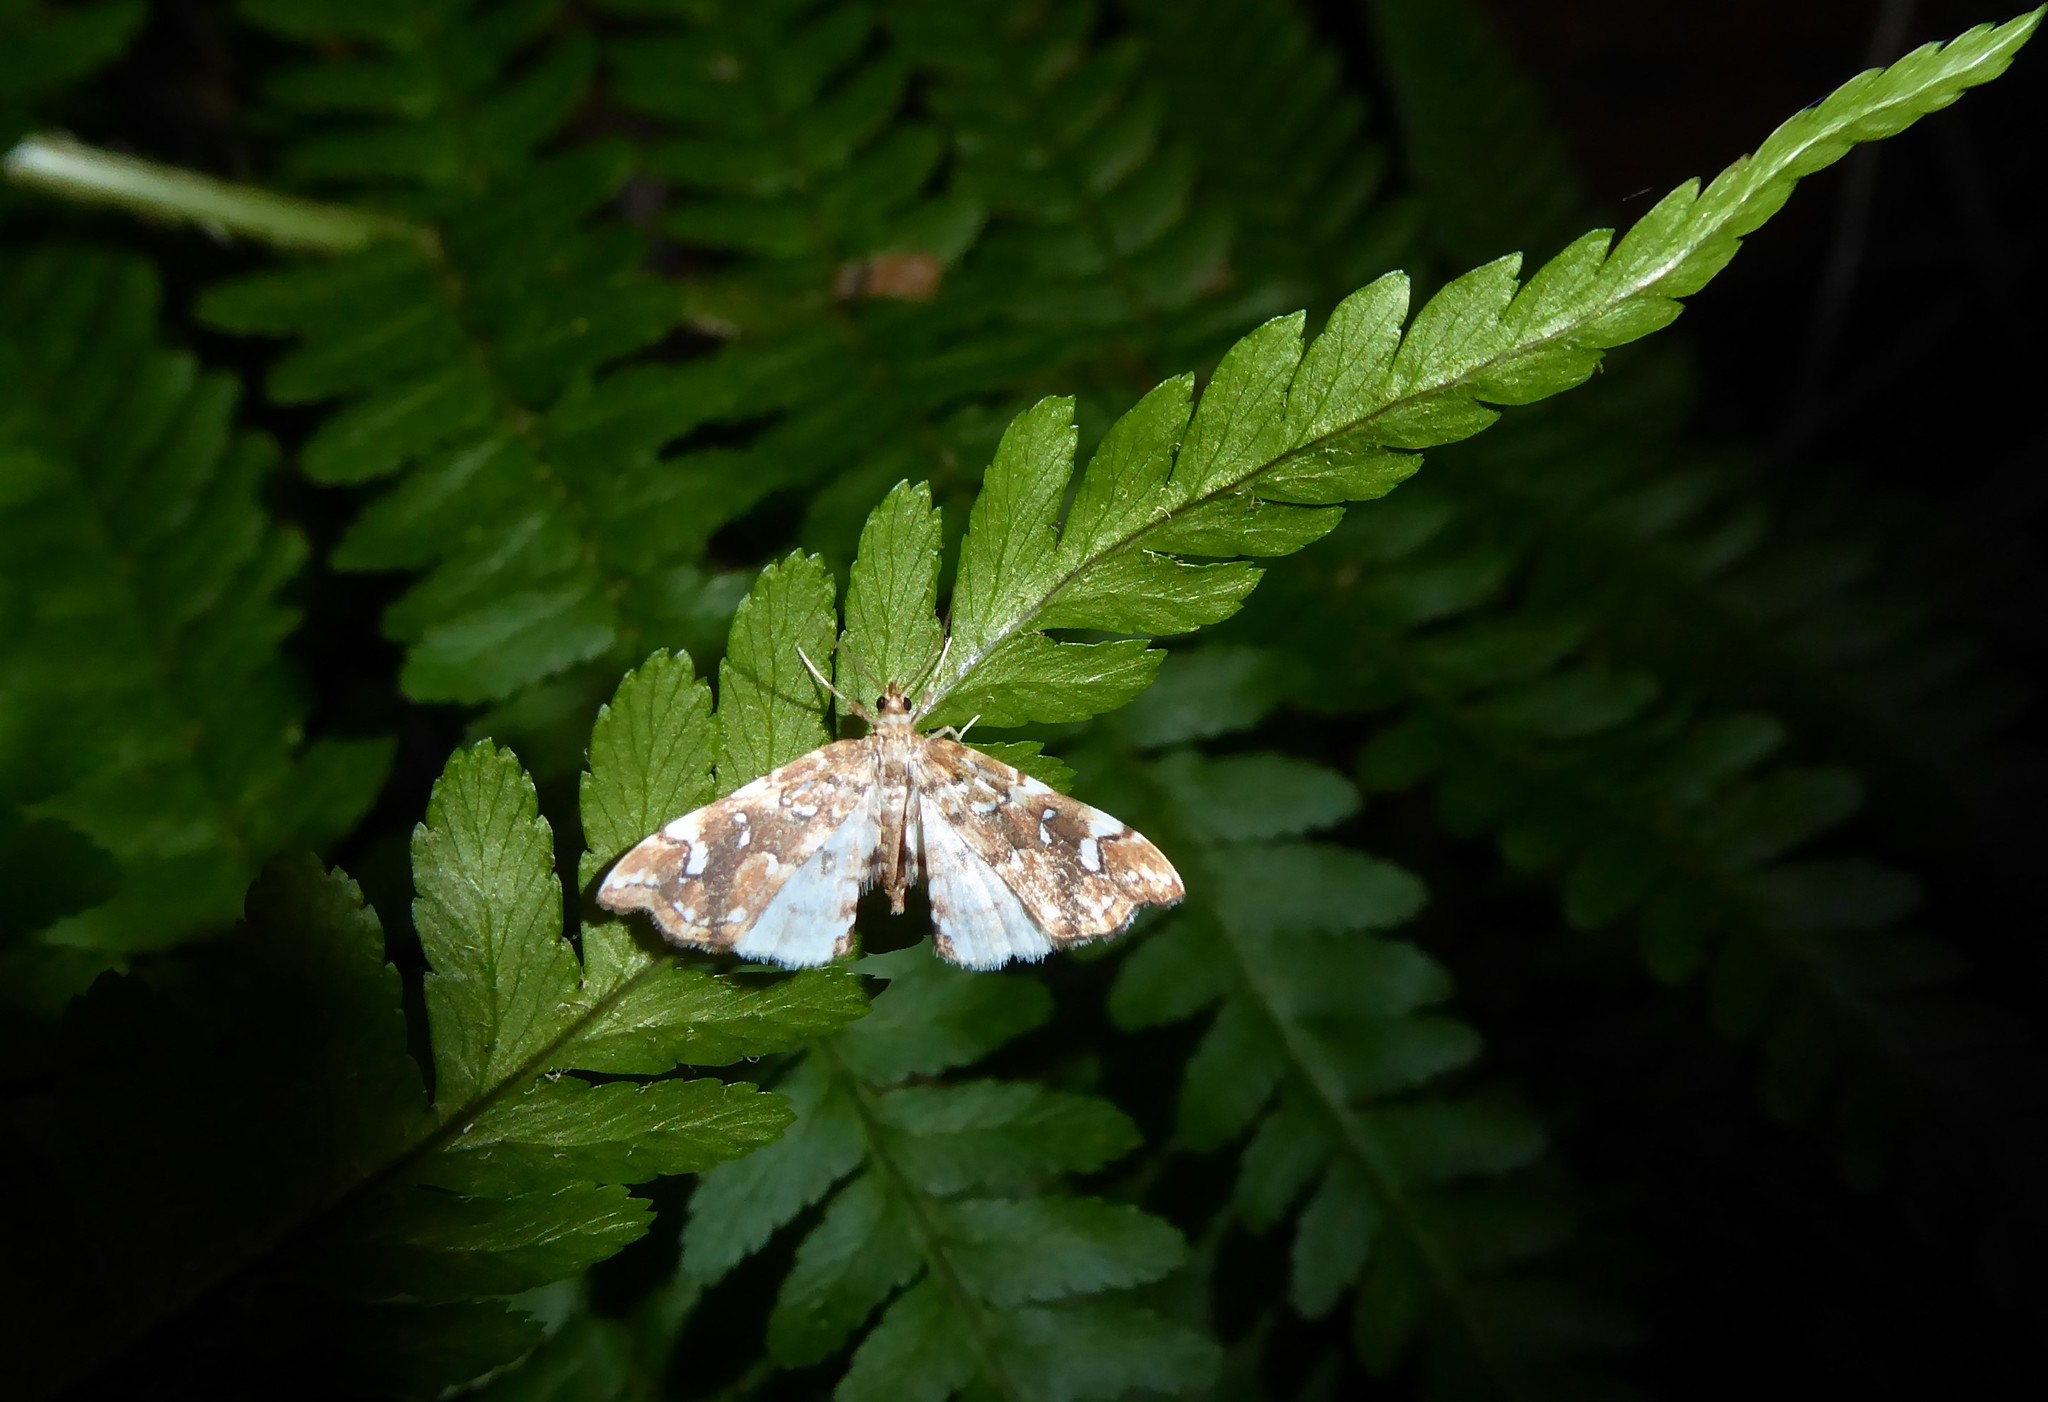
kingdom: Animalia
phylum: Arthropoda
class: Insecta
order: Lepidoptera
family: Pyralidae
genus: Musotima
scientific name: Musotima nitidalis
